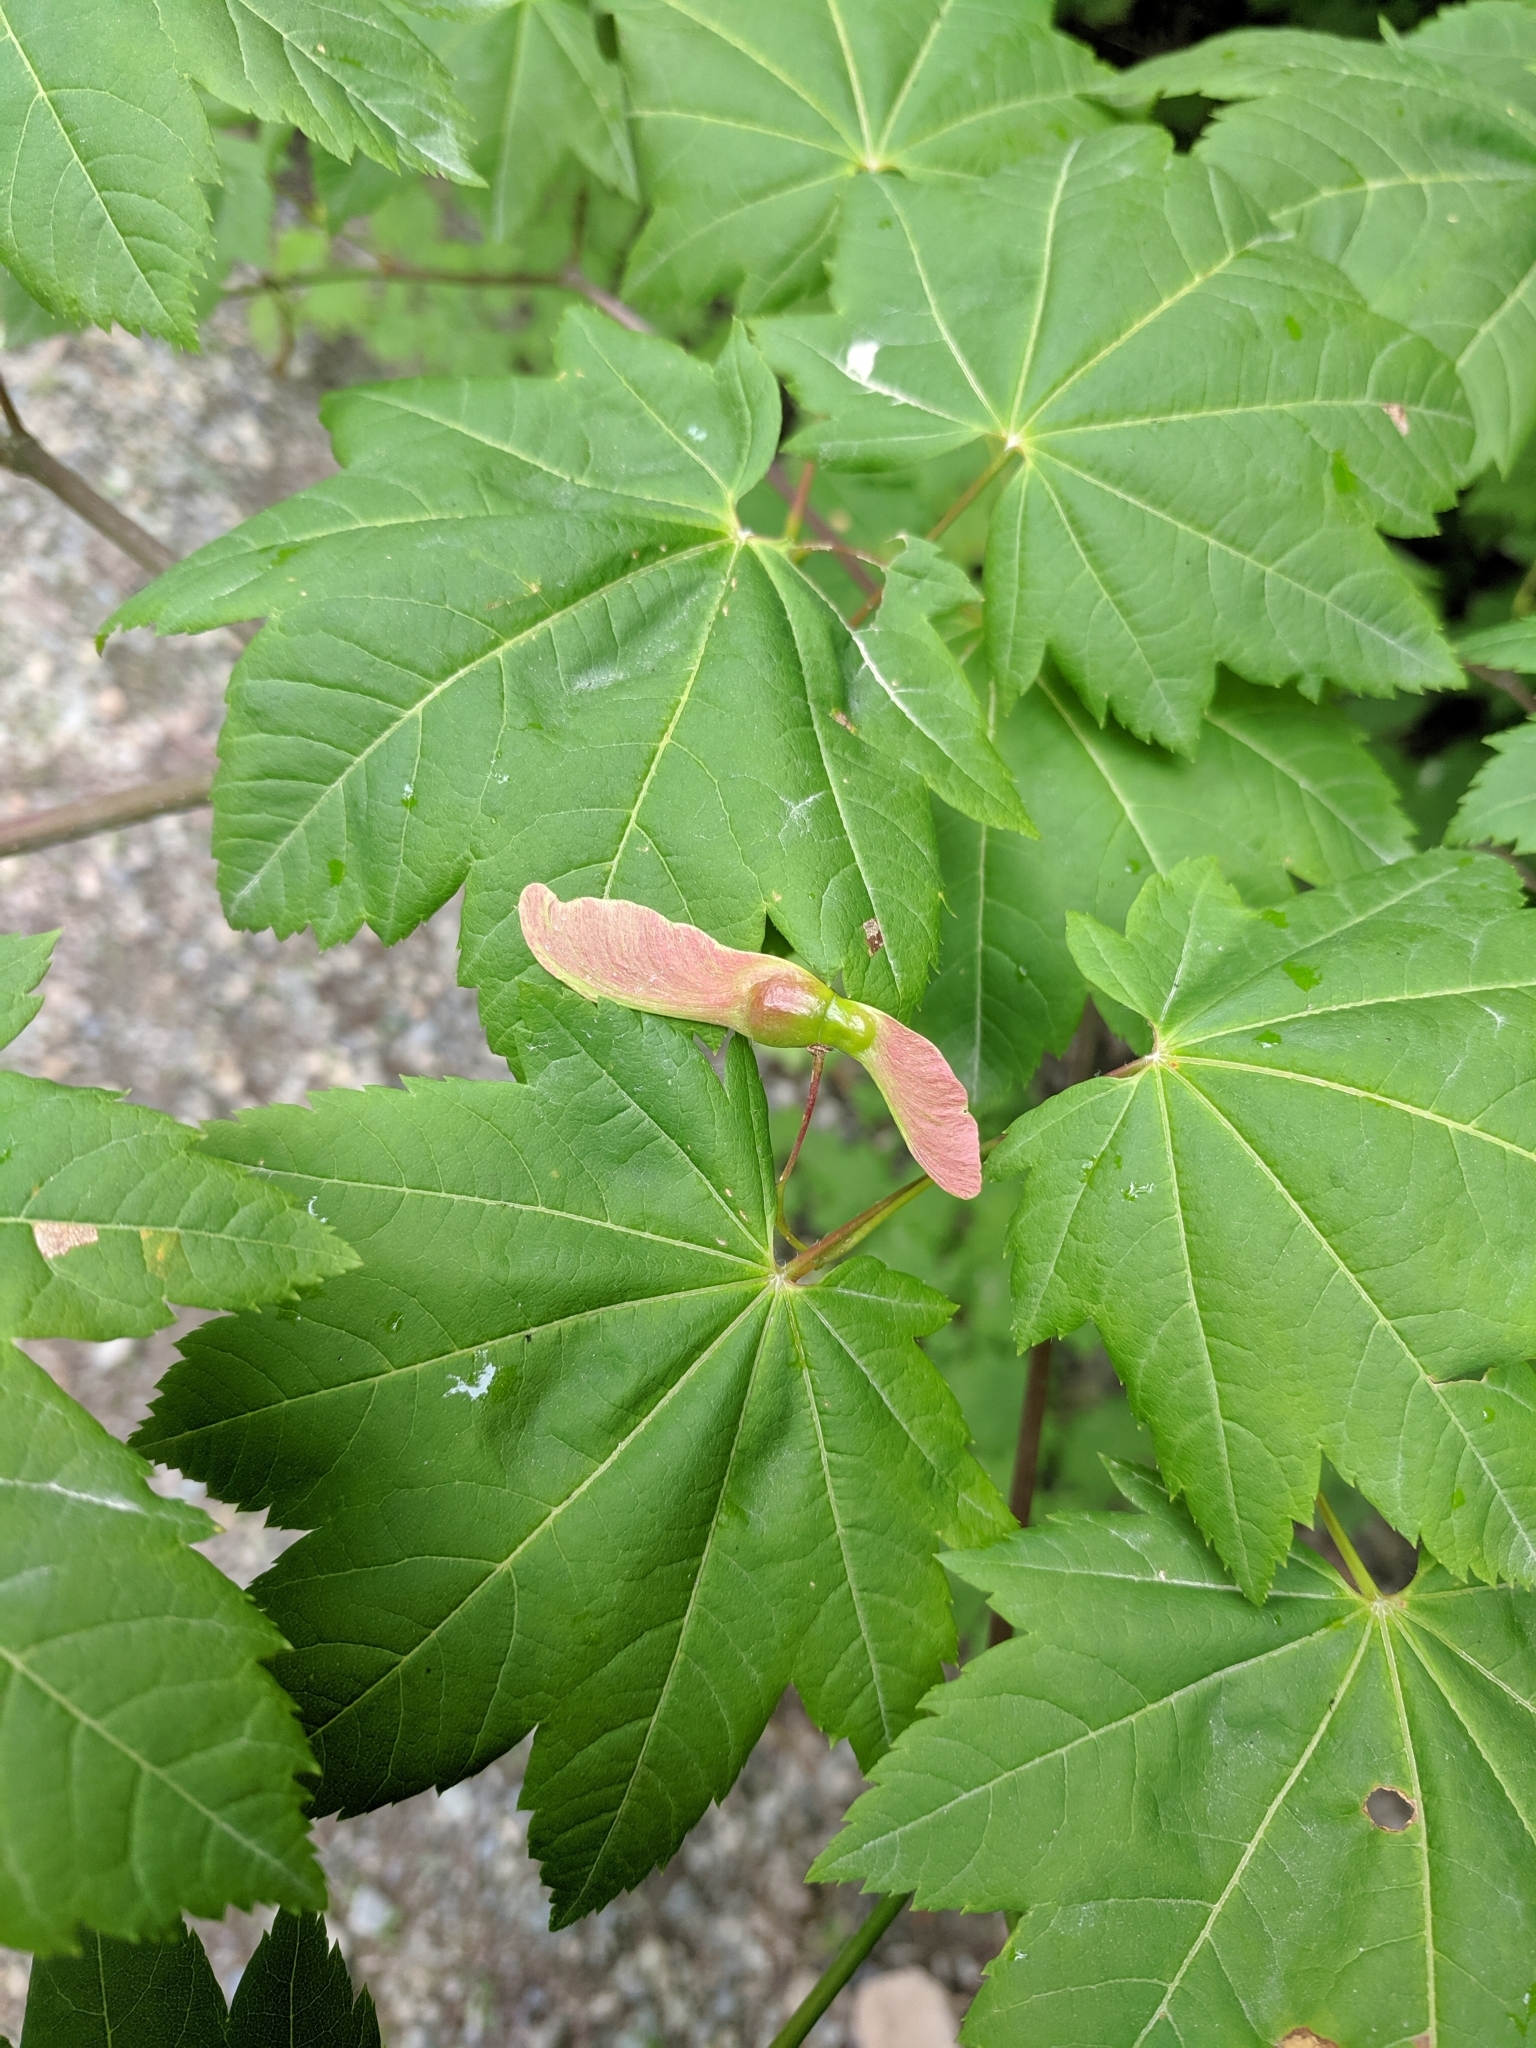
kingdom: Plantae
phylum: Tracheophyta
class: Magnoliopsida
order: Sapindales
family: Sapindaceae
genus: Acer
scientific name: Acer circinatum
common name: Vine maple
